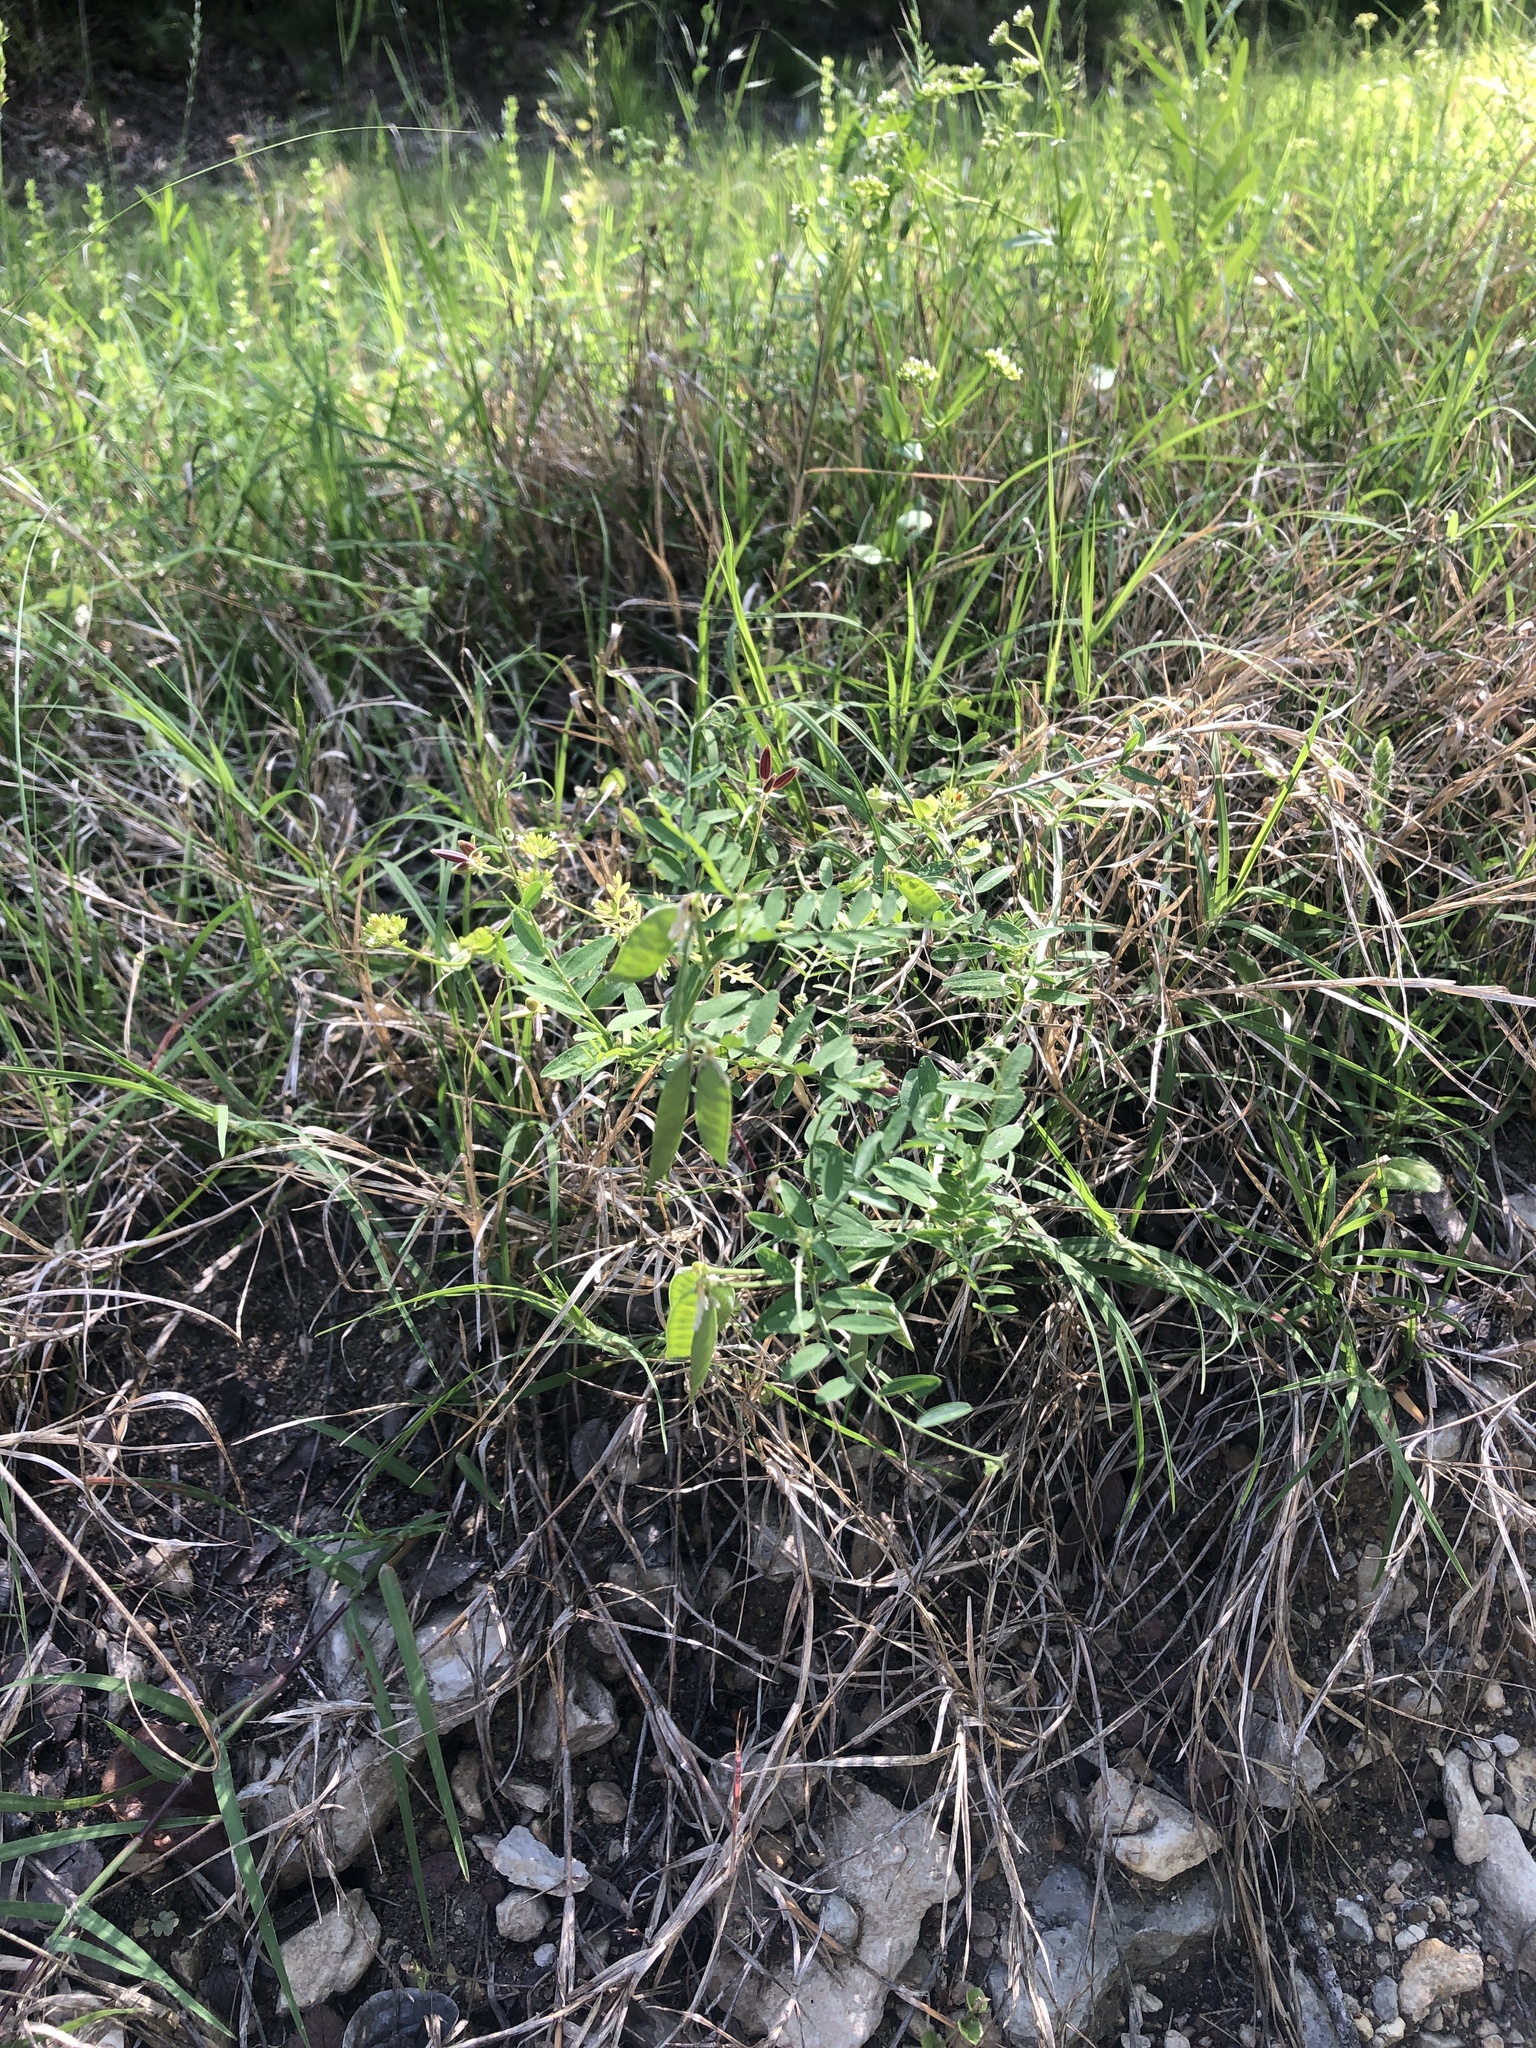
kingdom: Plantae
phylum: Tracheophyta
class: Magnoliopsida
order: Fabales
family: Fabaceae
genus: Vicia
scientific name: Vicia ludoviciana
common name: Louisiana vetch
